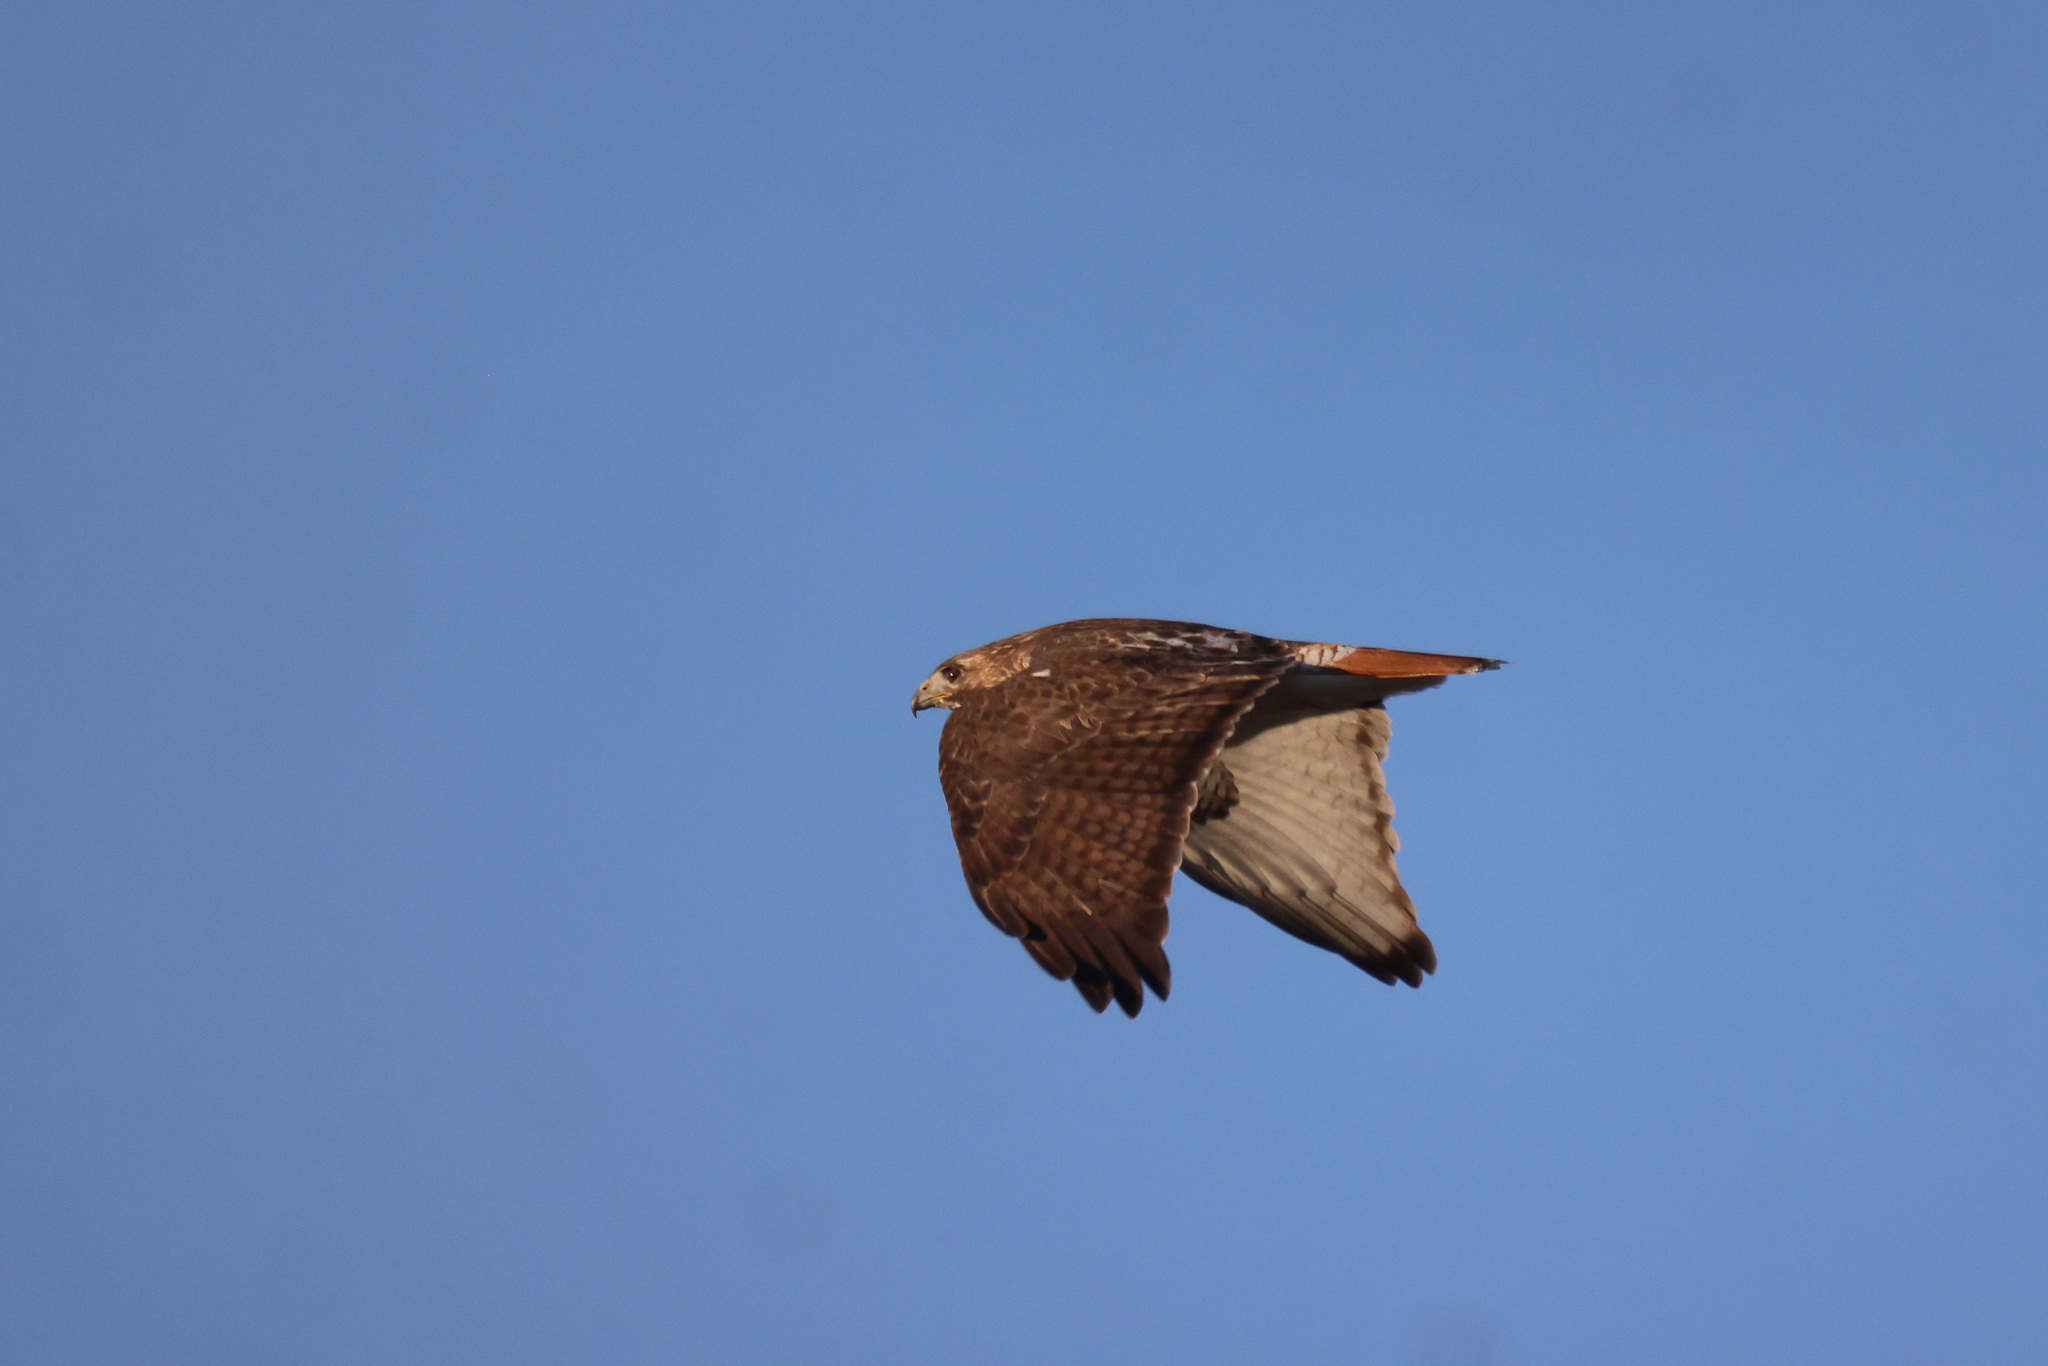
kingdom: Animalia
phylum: Chordata
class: Aves
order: Accipitriformes
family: Accipitridae
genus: Buteo
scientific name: Buteo jamaicensis
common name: Red-tailed hawk
